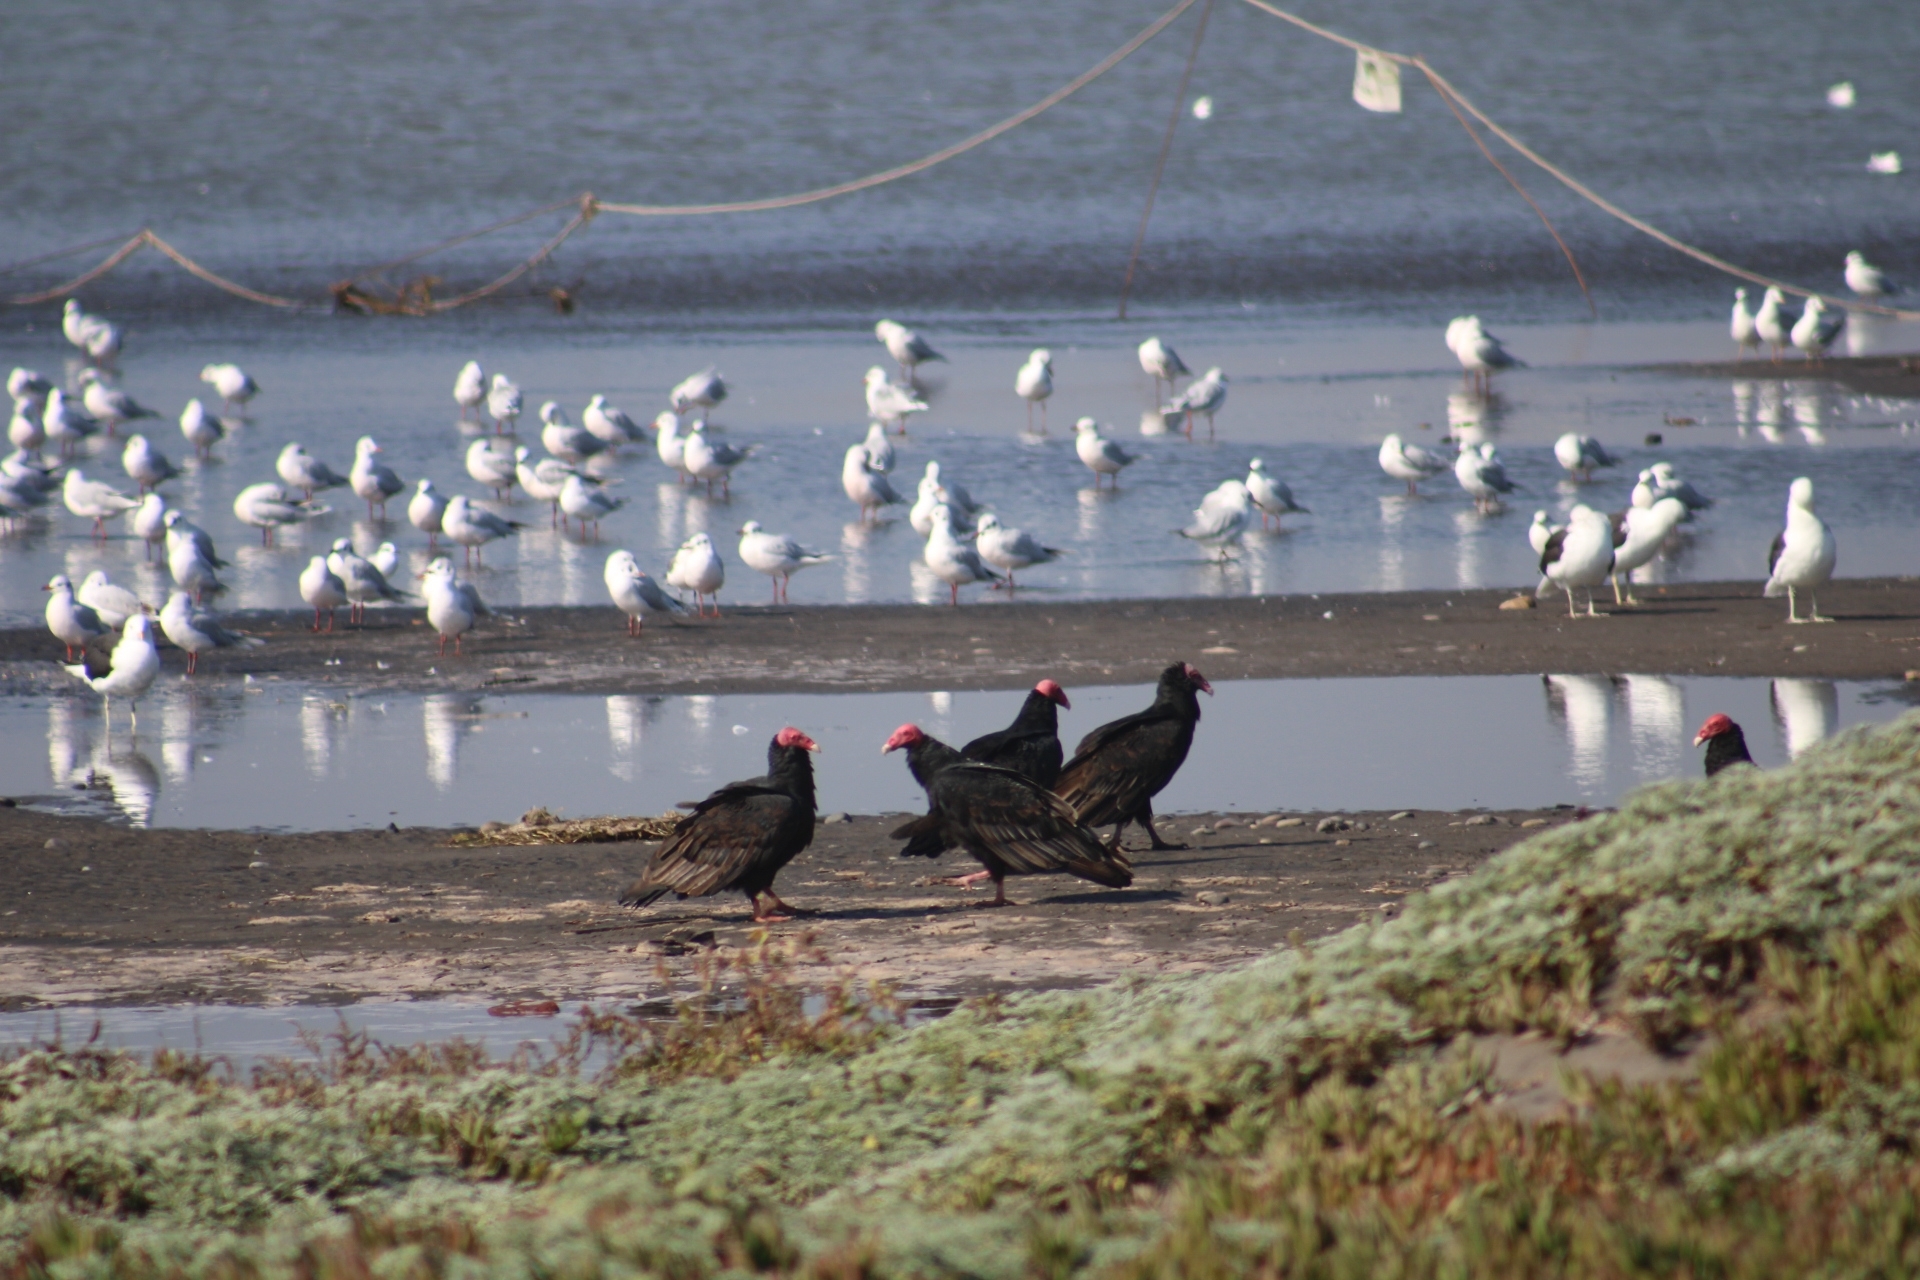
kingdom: Animalia
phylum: Chordata
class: Aves
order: Accipitriformes
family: Cathartidae
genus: Cathartes
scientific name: Cathartes aura
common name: Turkey vulture
